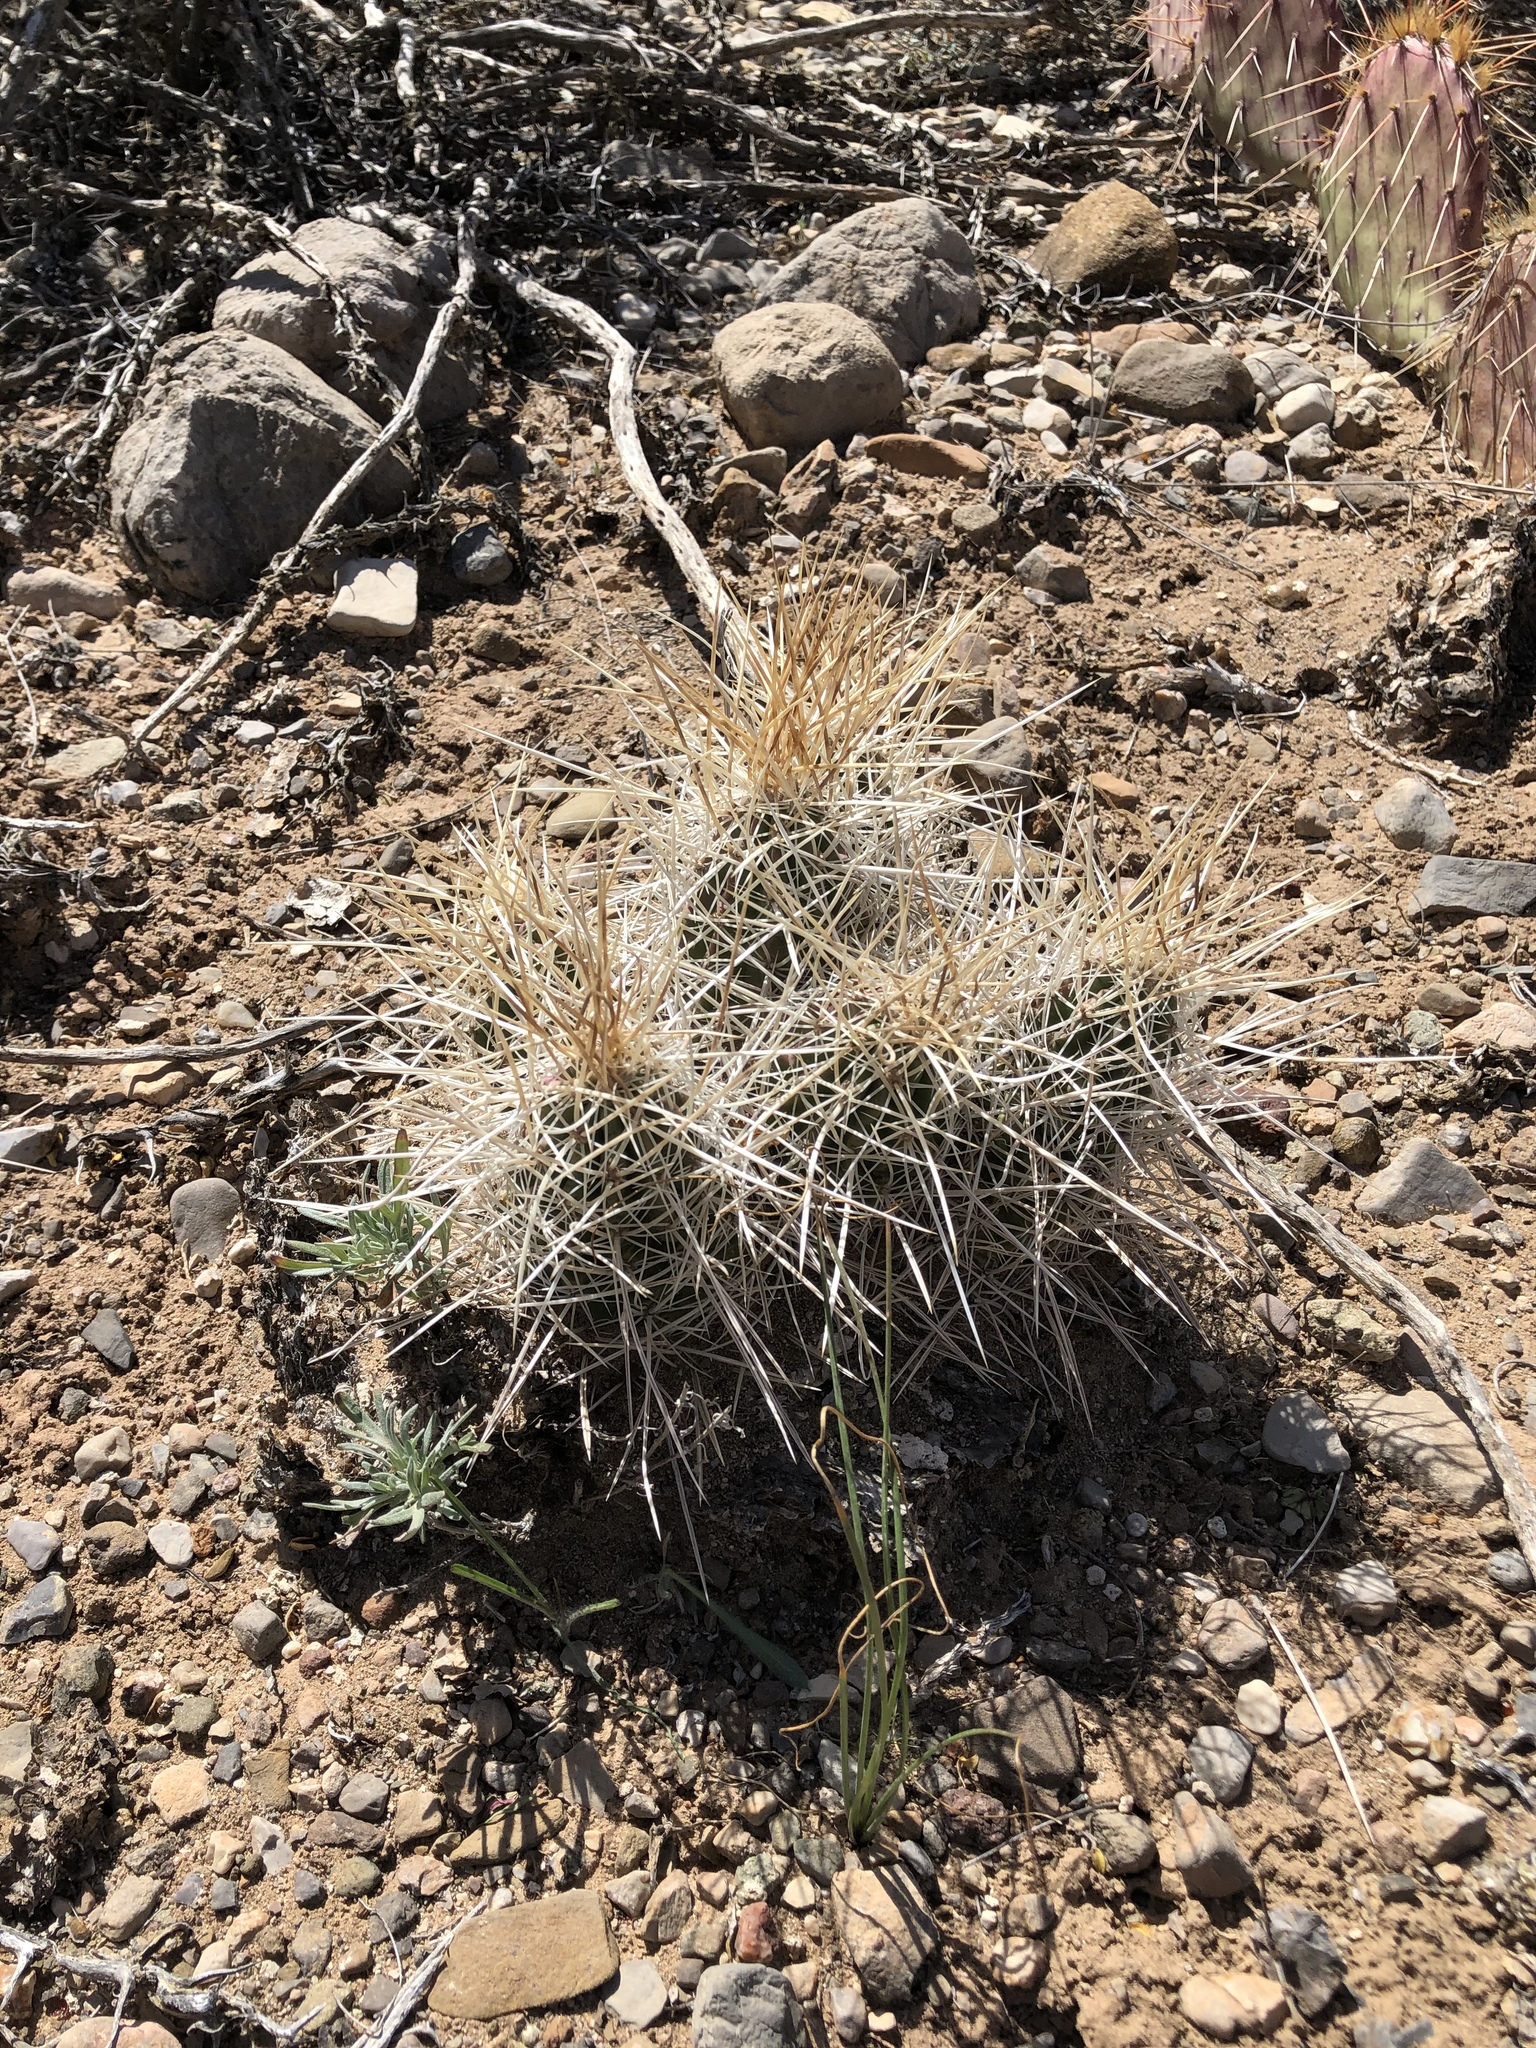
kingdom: Plantae
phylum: Tracheophyta
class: Magnoliopsida
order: Caryophyllales
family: Cactaceae
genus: Echinocereus
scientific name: Echinocereus stramineus
